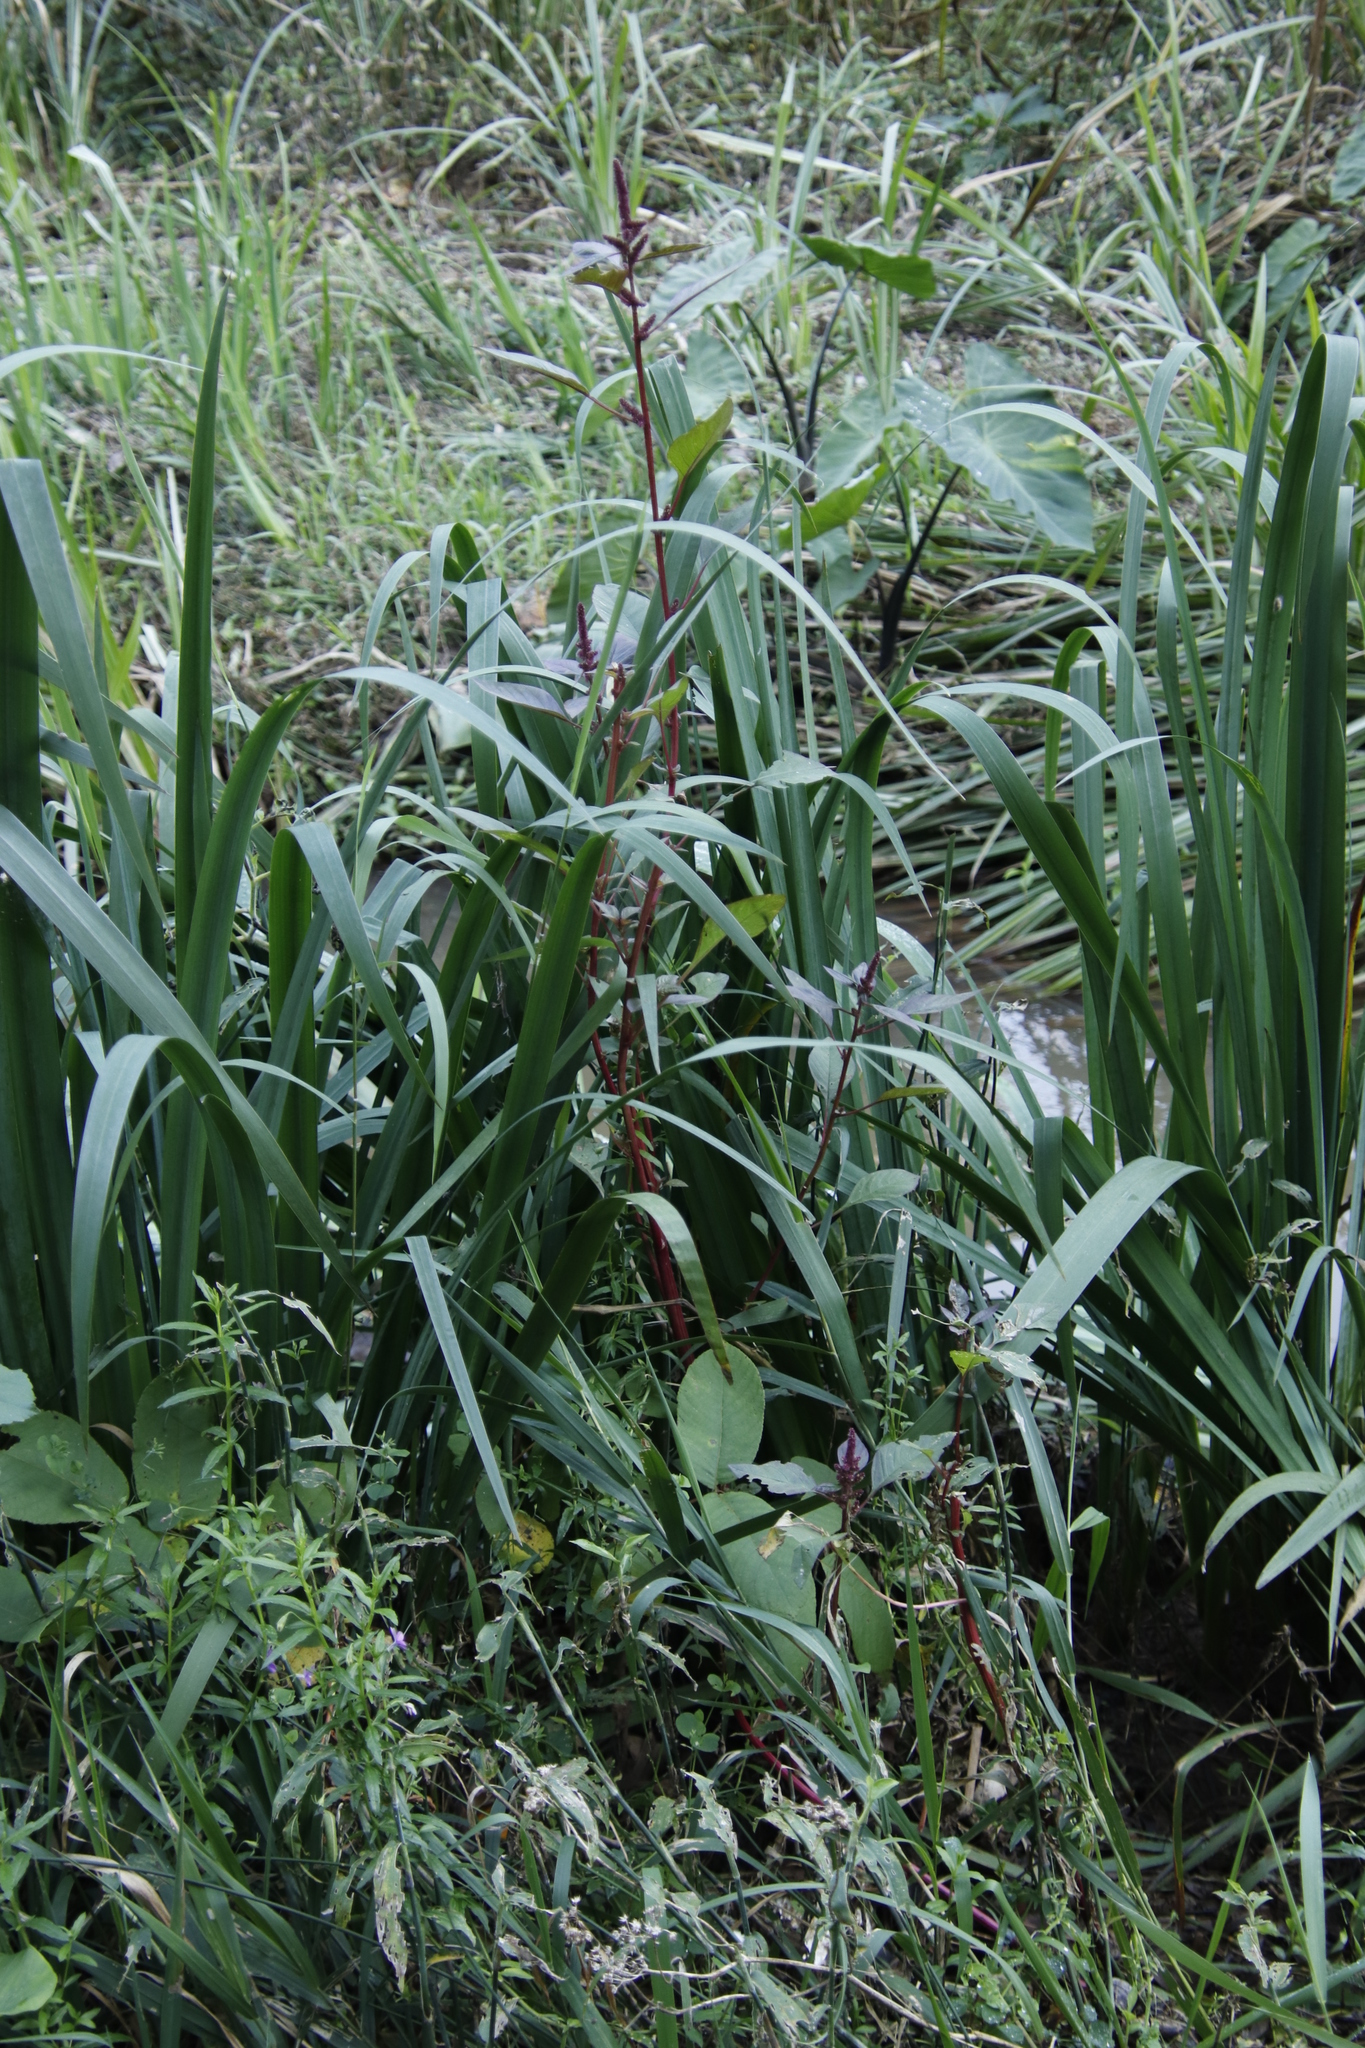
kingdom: Plantae
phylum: Tracheophyta
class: Magnoliopsida
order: Caryophyllales
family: Amaranthaceae
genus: Amaranthus
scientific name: Amaranthus cruentus
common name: Purple amaranth
